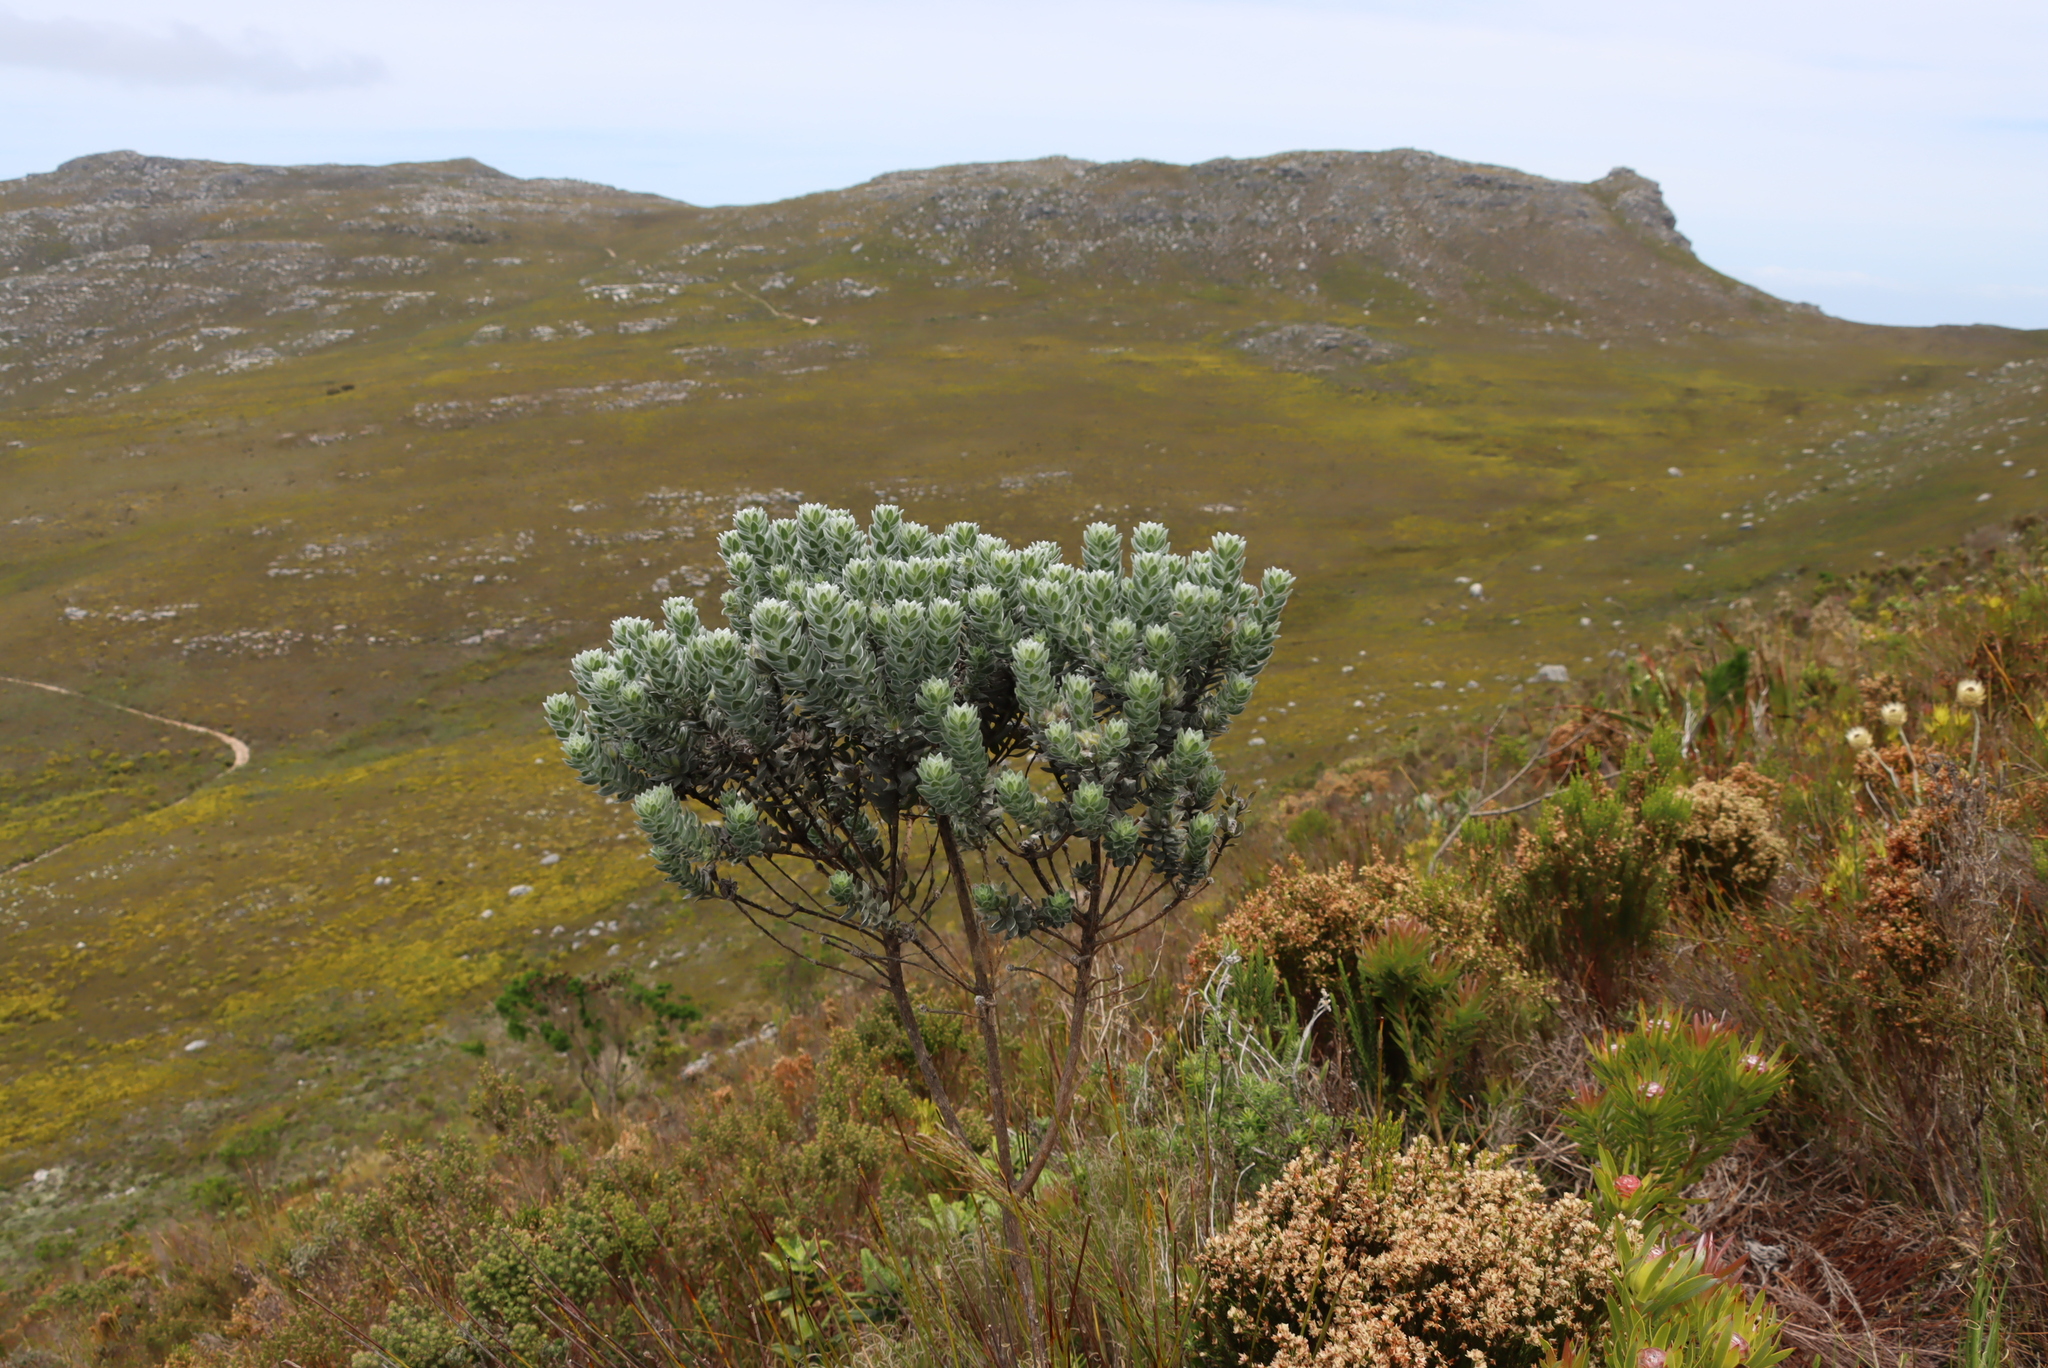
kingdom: Plantae
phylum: Tracheophyta
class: Magnoliopsida
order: Fabales
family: Fabaceae
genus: Xiphotheca
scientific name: Xiphotheca fruticosa
